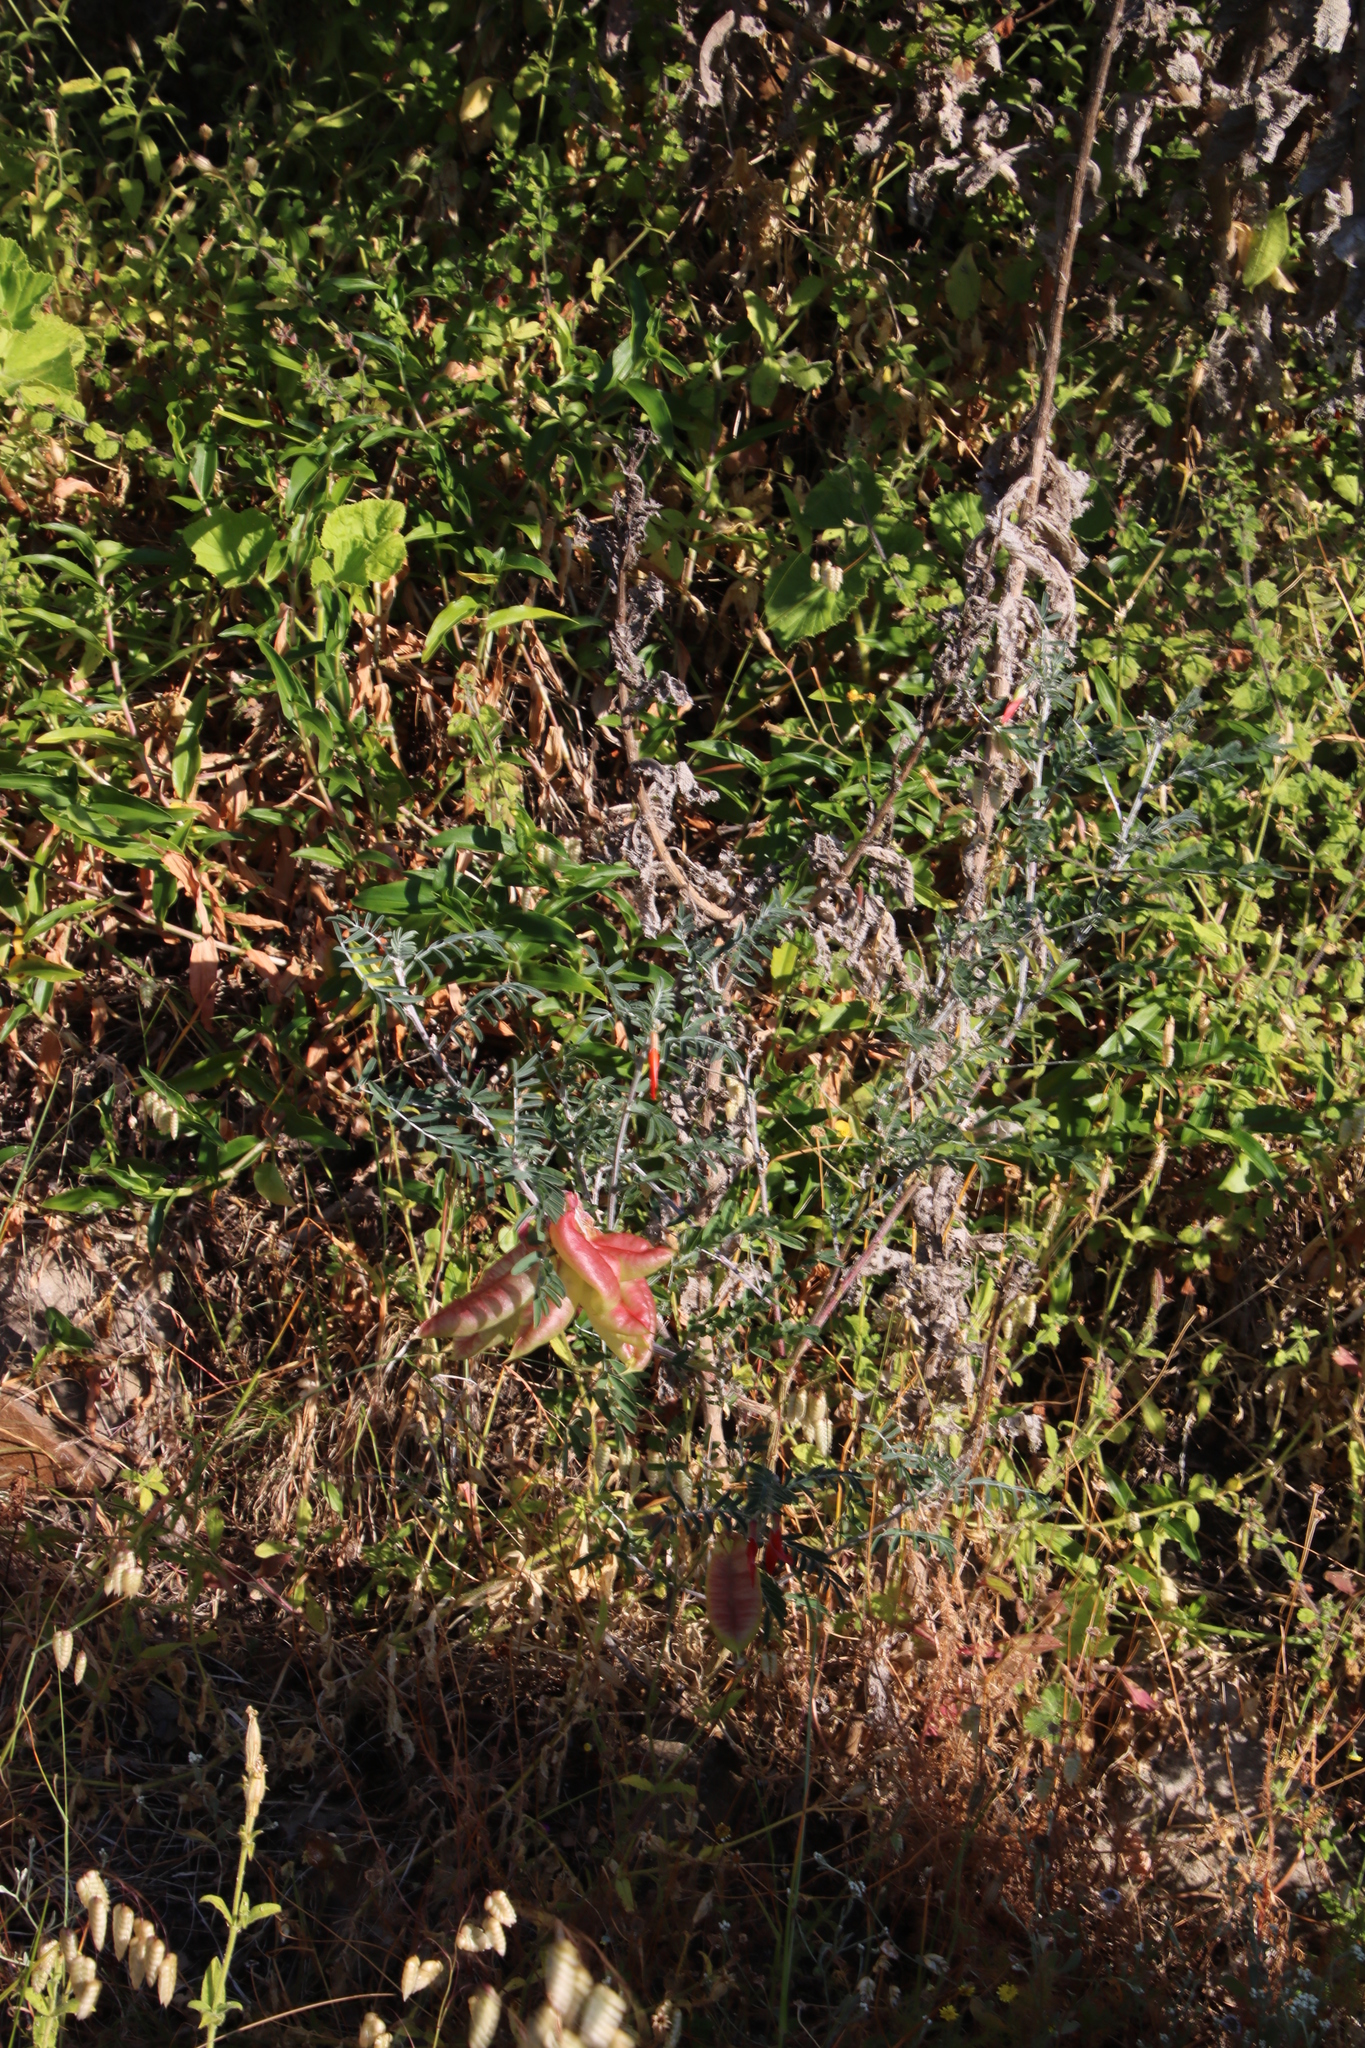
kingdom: Plantae
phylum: Tracheophyta
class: Magnoliopsida
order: Fabales
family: Fabaceae
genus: Lessertia
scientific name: Lessertia frutescens
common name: Balloon-pea
